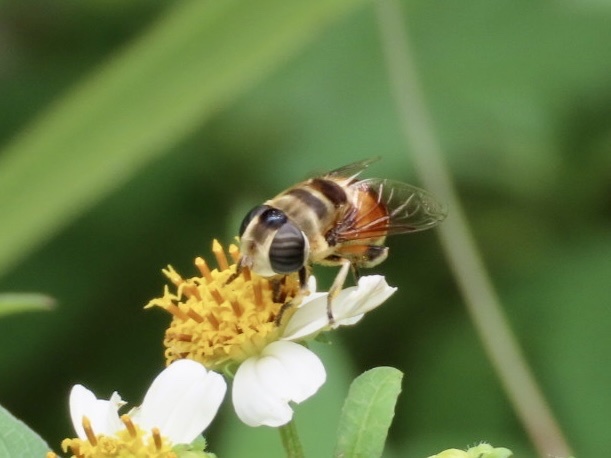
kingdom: Animalia
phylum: Arthropoda
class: Insecta
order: Diptera
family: Syrphidae
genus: Phytomia
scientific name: Phytomia errans
